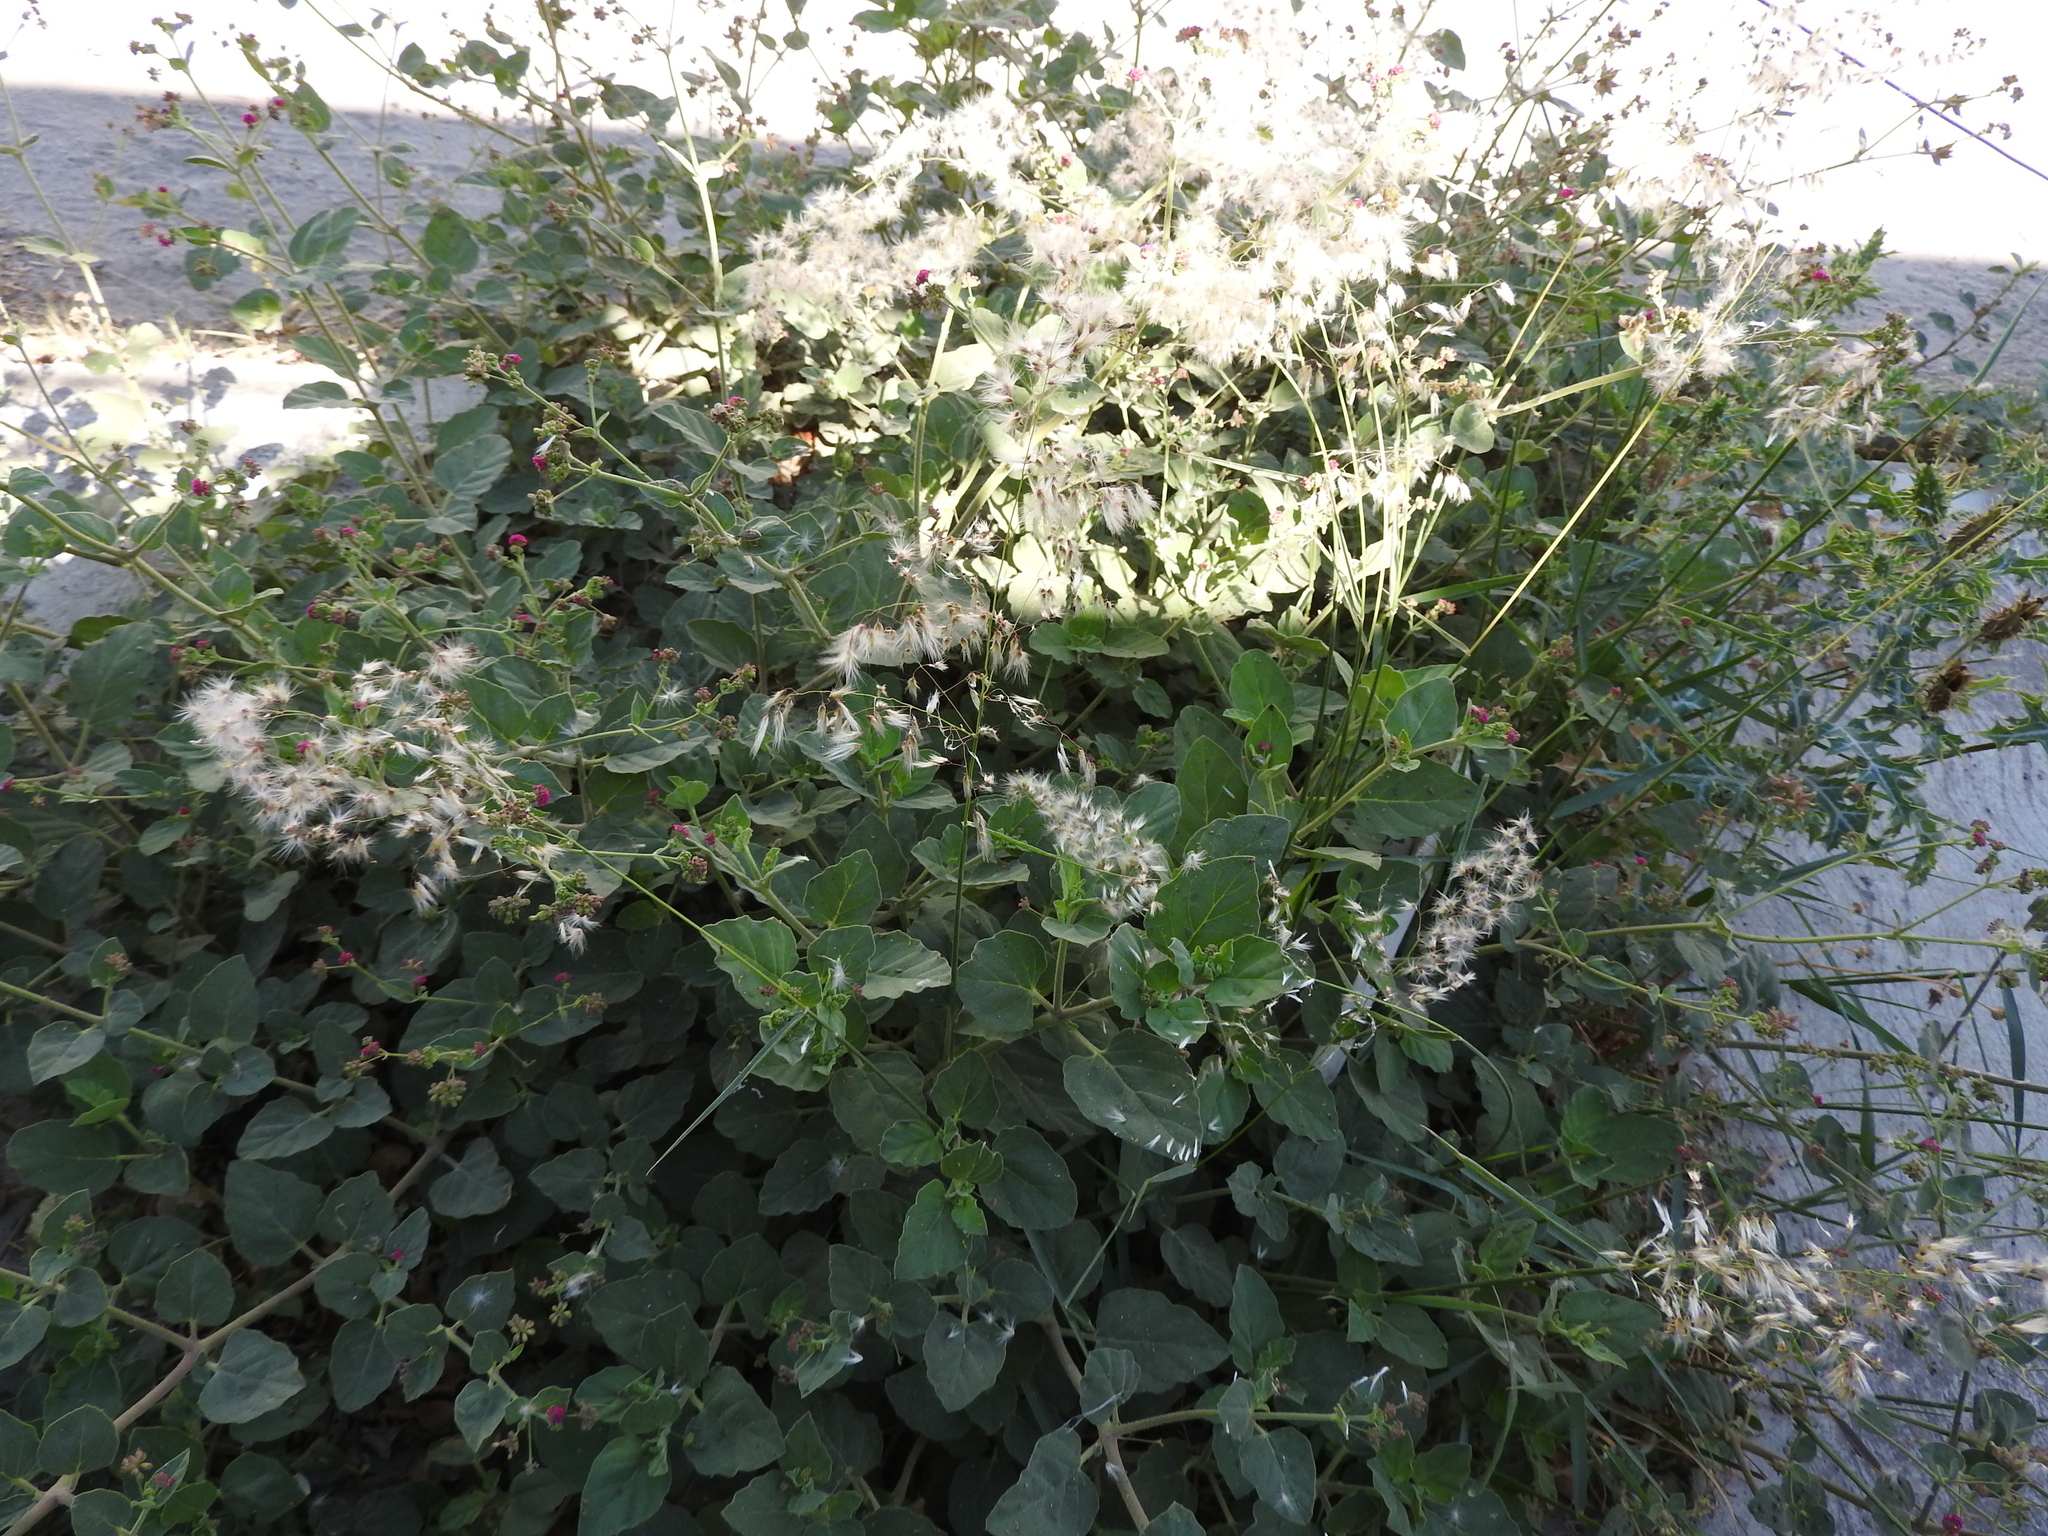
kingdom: Plantae
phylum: Tracheophyta
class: Magnoliopsida
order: Caryophyllales
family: Nyctaginaceae
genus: Boerhavia
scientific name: Boerhavia coccinea
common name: Scarlet spiderling
